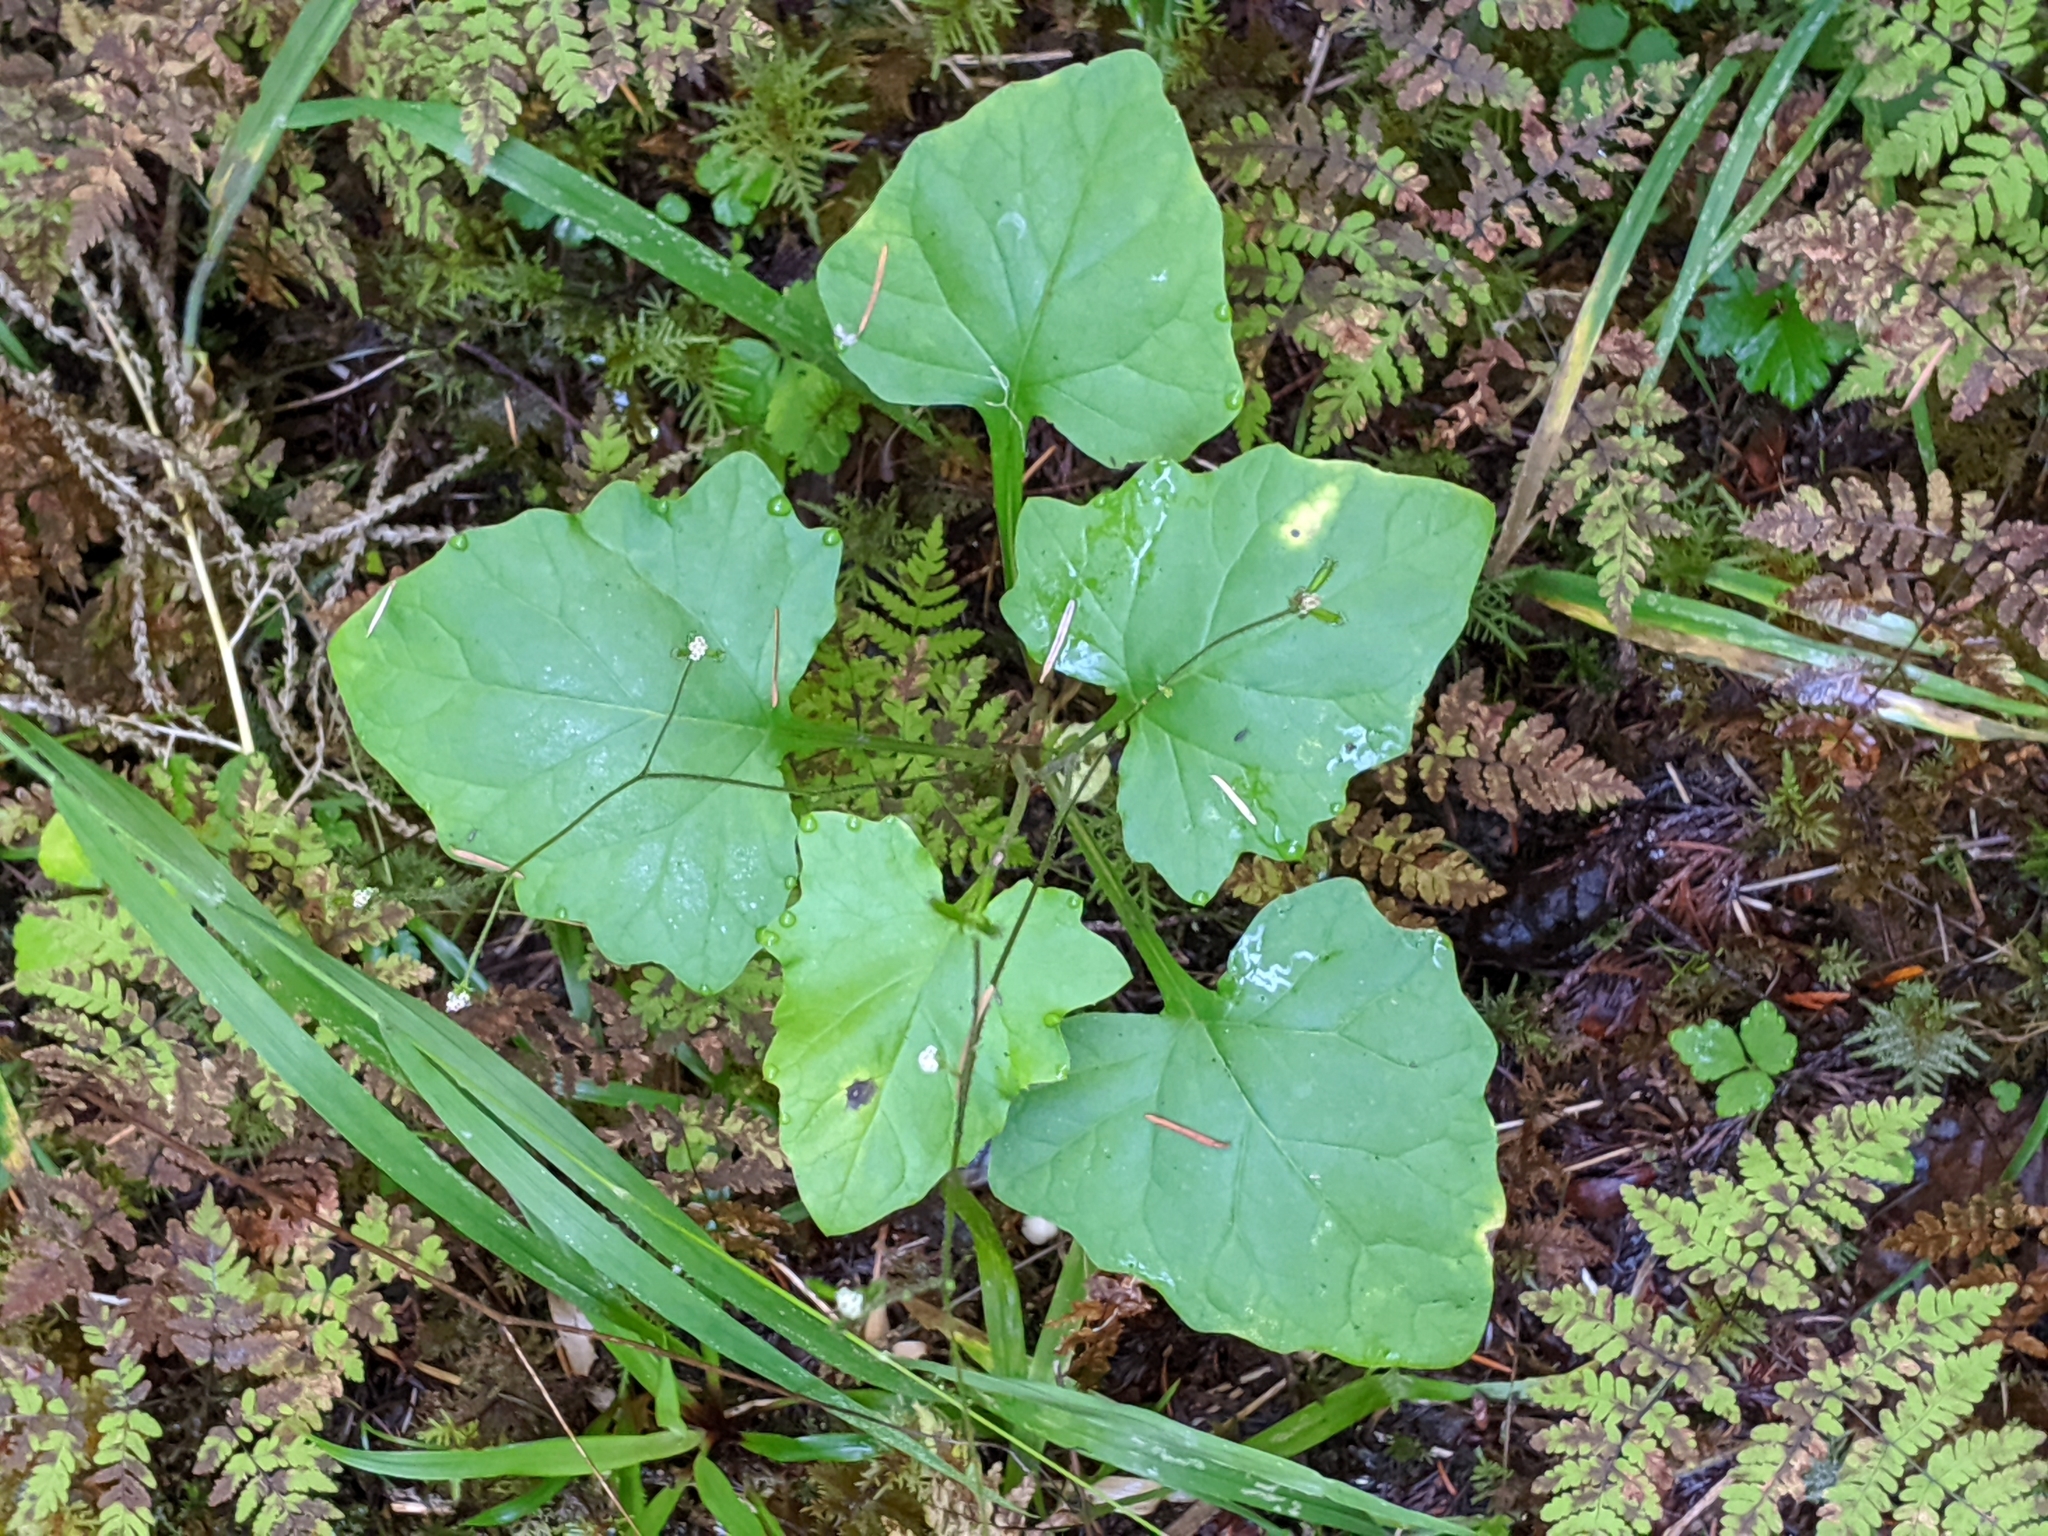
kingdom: Plantae
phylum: Tracheophyta
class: Magnoliopsida
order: Asterales
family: Asteraceae
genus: Adenocaulon
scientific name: Adenocaulon bicolor
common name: Trailplant
